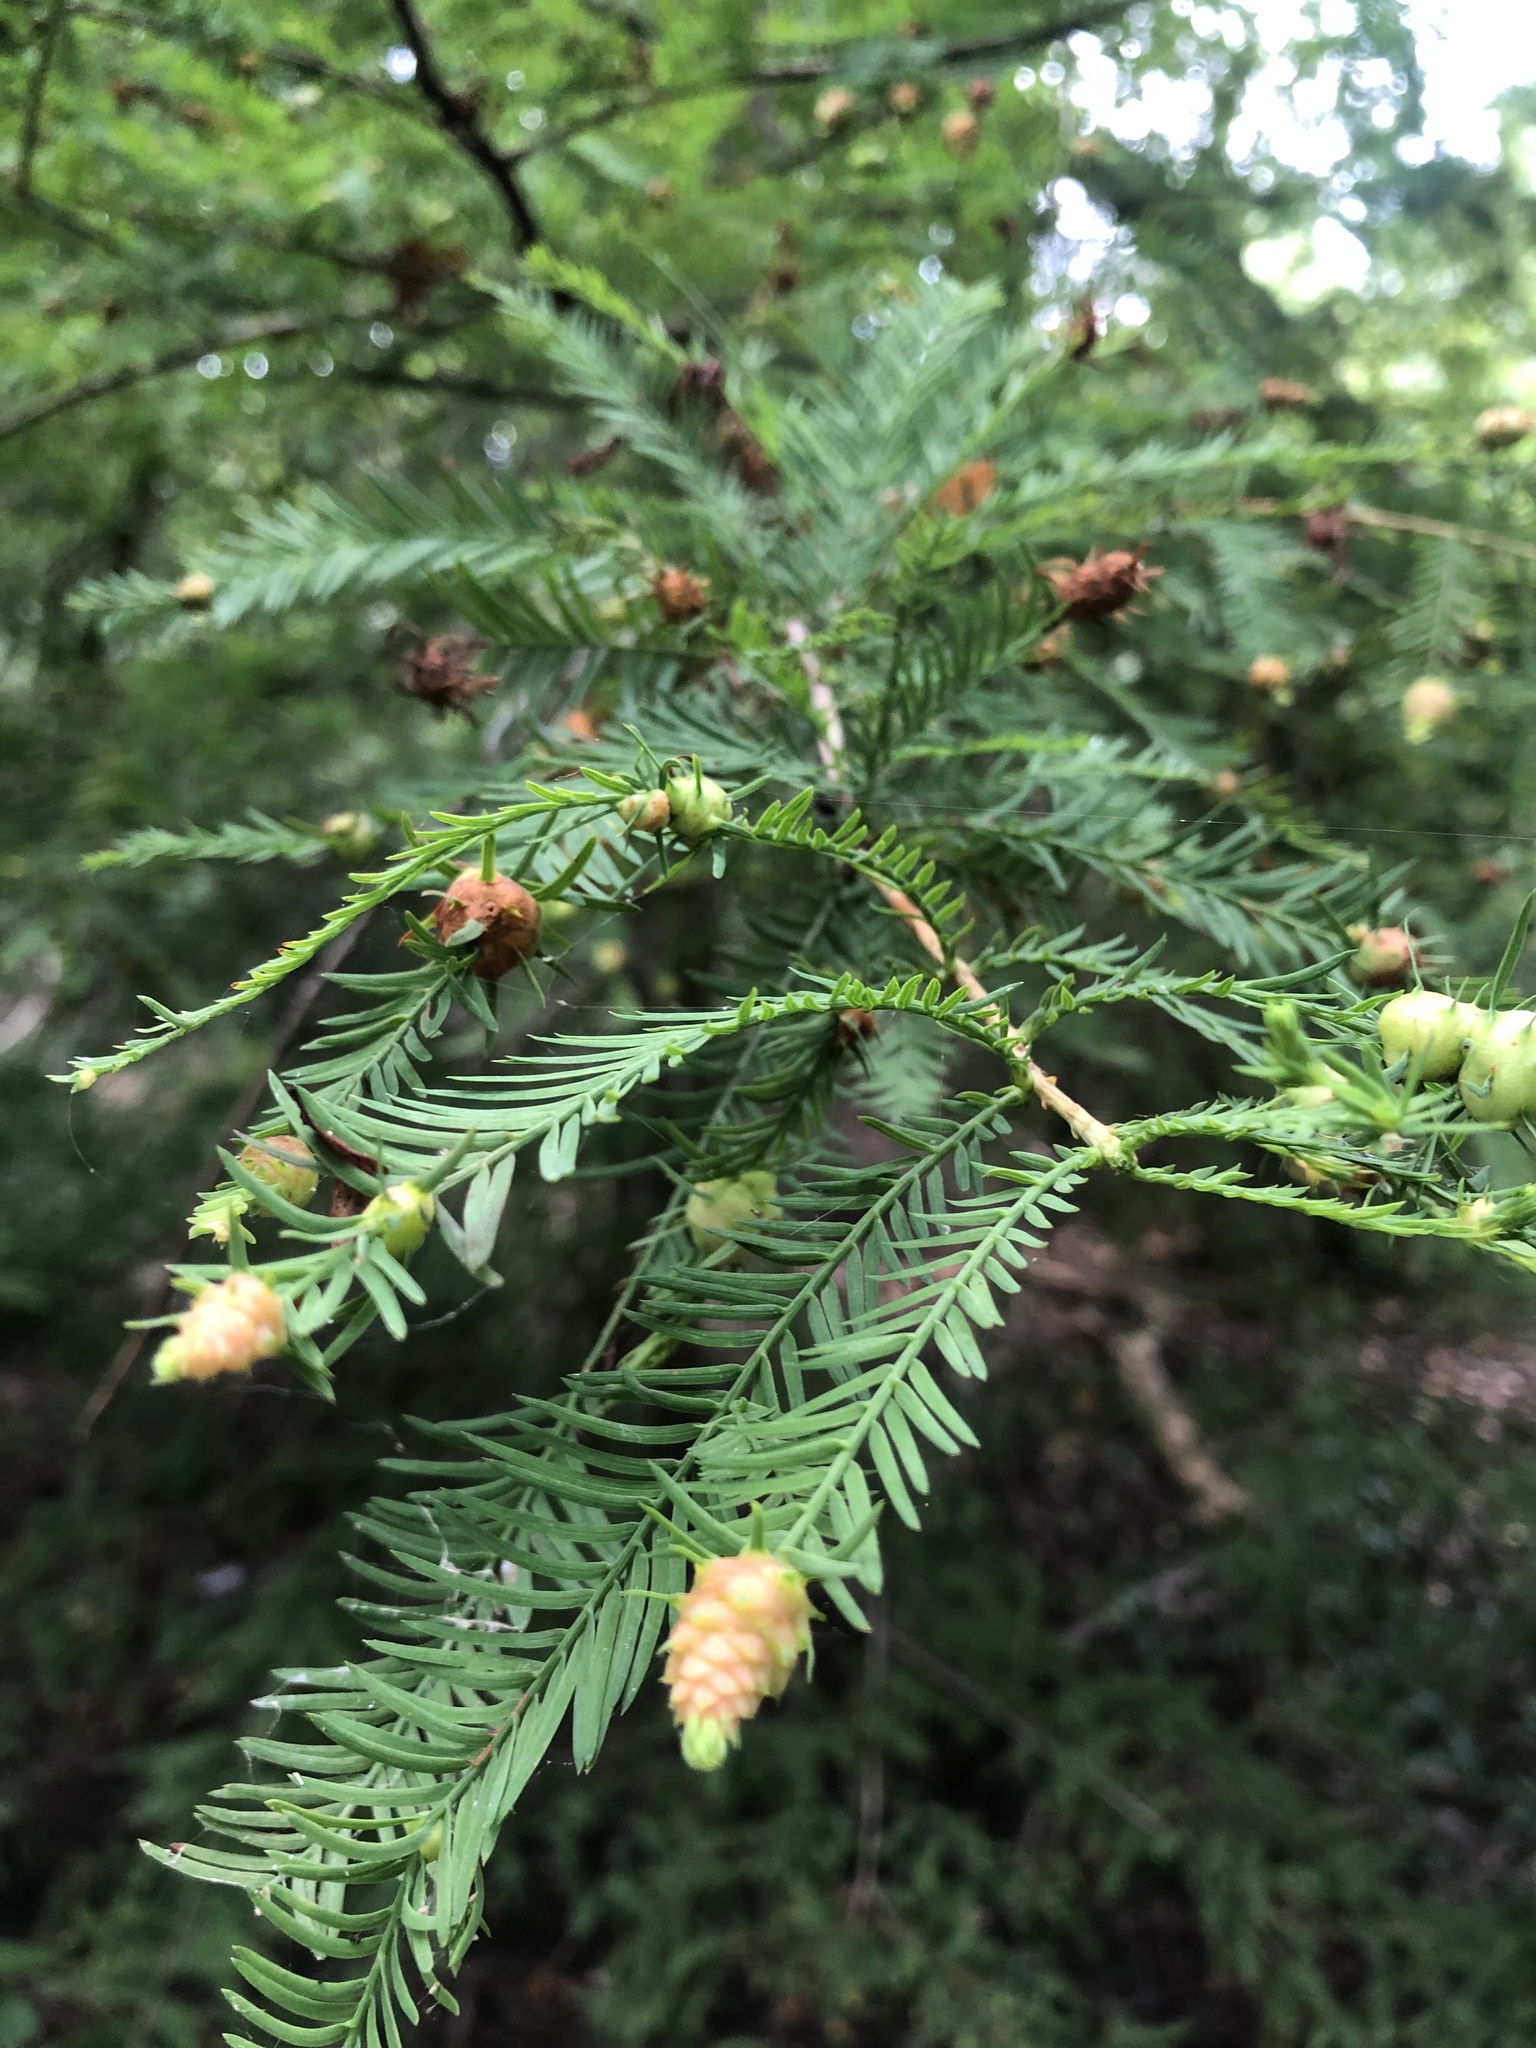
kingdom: Animalia
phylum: Arthropoda
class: Insecta
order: Diptera
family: Cecidomyiidae
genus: Taxodiomyia
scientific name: Taxodiomyia cupressiananassa
